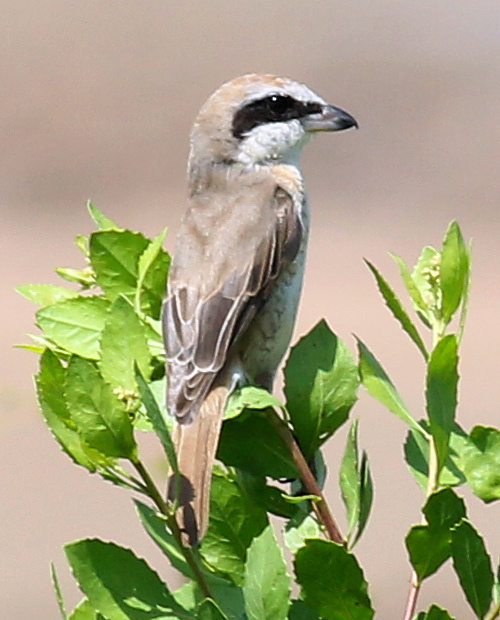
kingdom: Animalia
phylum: Chordata
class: Aves
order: Passeriformes
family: Laniidae
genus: Lanius
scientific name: Lanius cristatus
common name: Brown shrike
